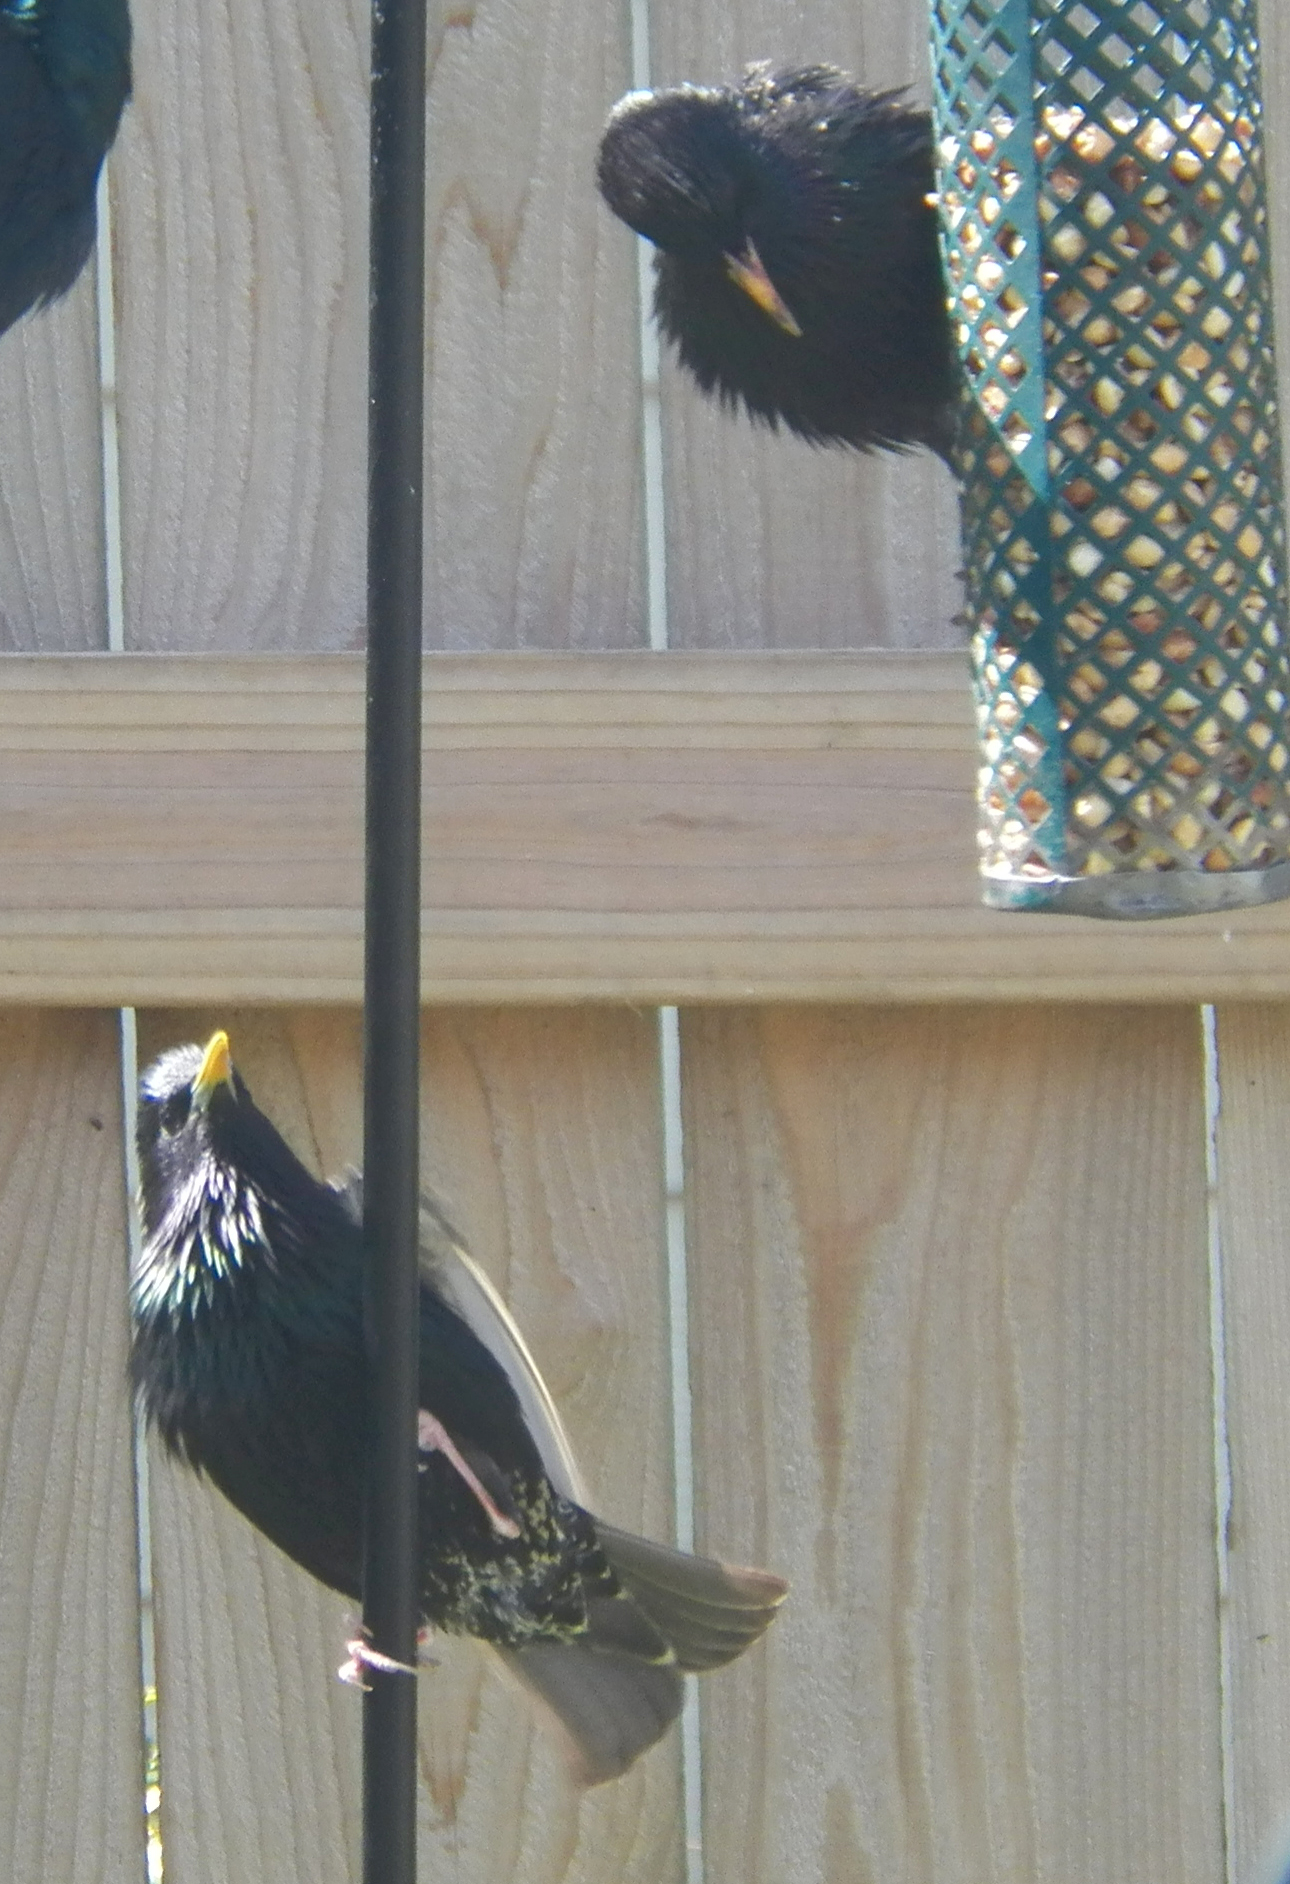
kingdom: Animalia
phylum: Chordata
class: Aves
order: Passeriformes
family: Sturnidae
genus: Sturnus
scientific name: Sturnus vulgaris
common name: Common starling
